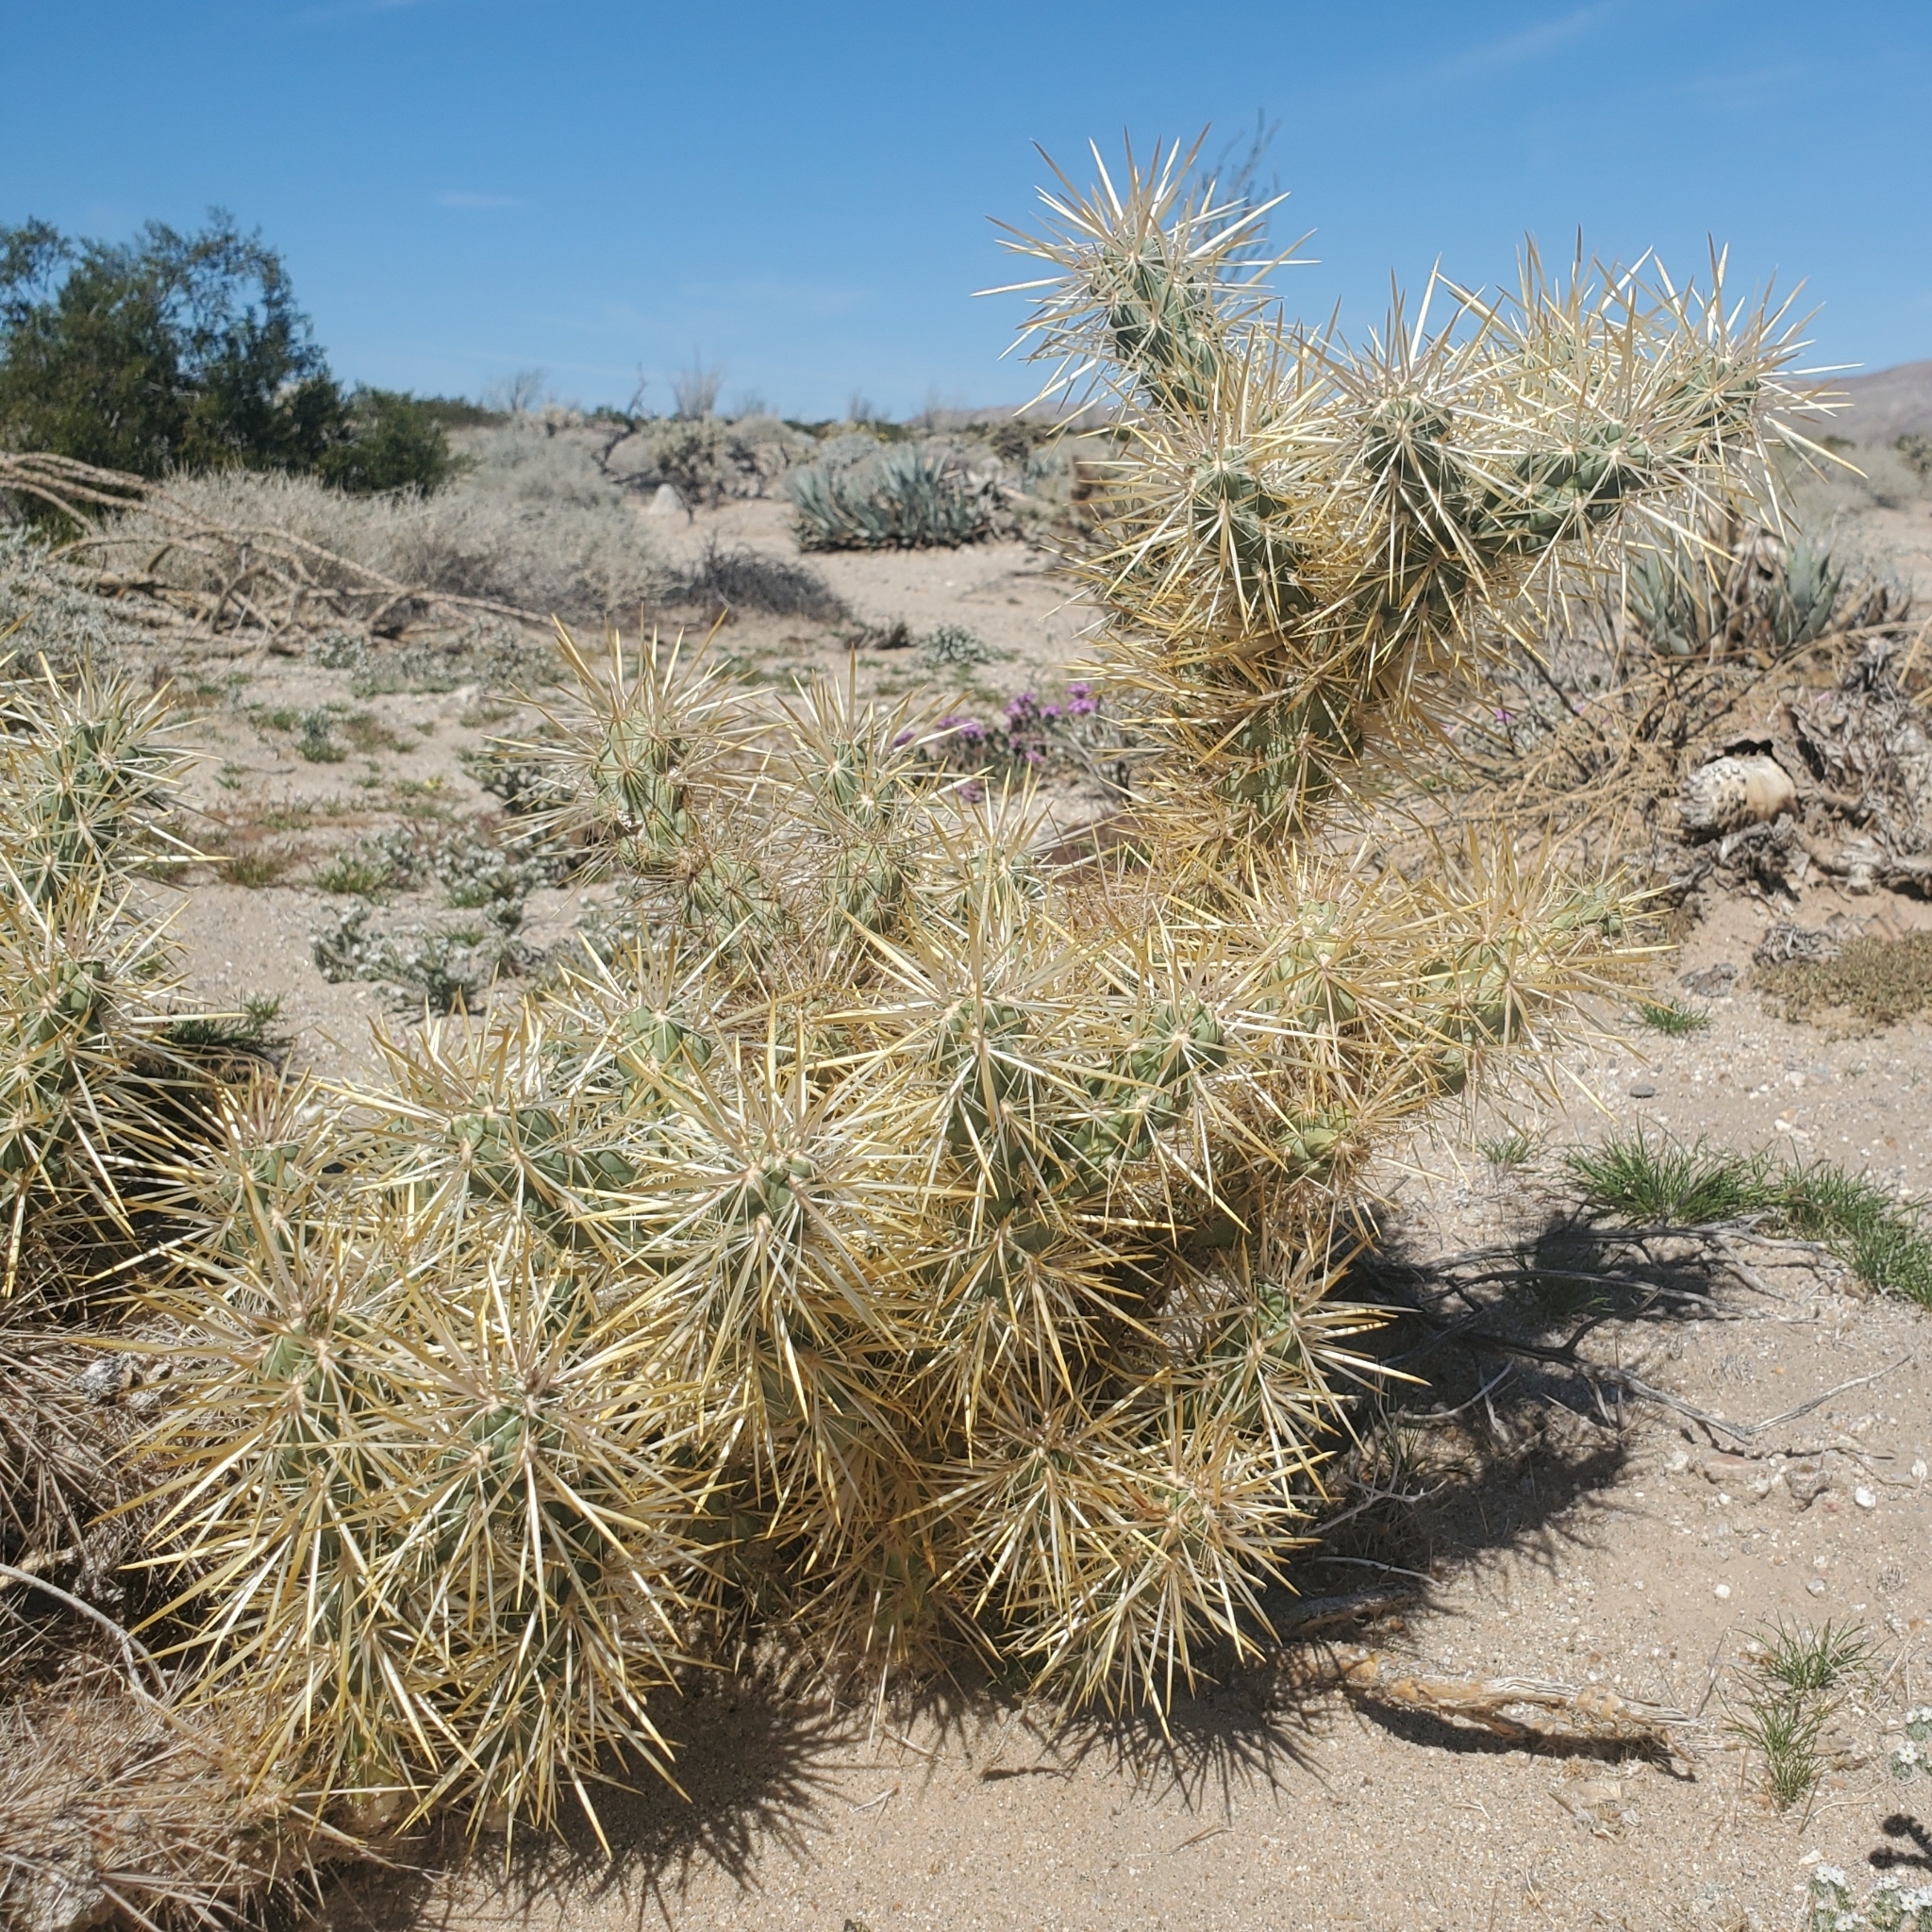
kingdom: Plantae
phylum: Tracheophyta
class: Magnoliopsida
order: Caryophyllales
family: Cactaceae
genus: Cylindropuntia
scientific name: Cylindropuntia echinocarpa
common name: Ground cholla
